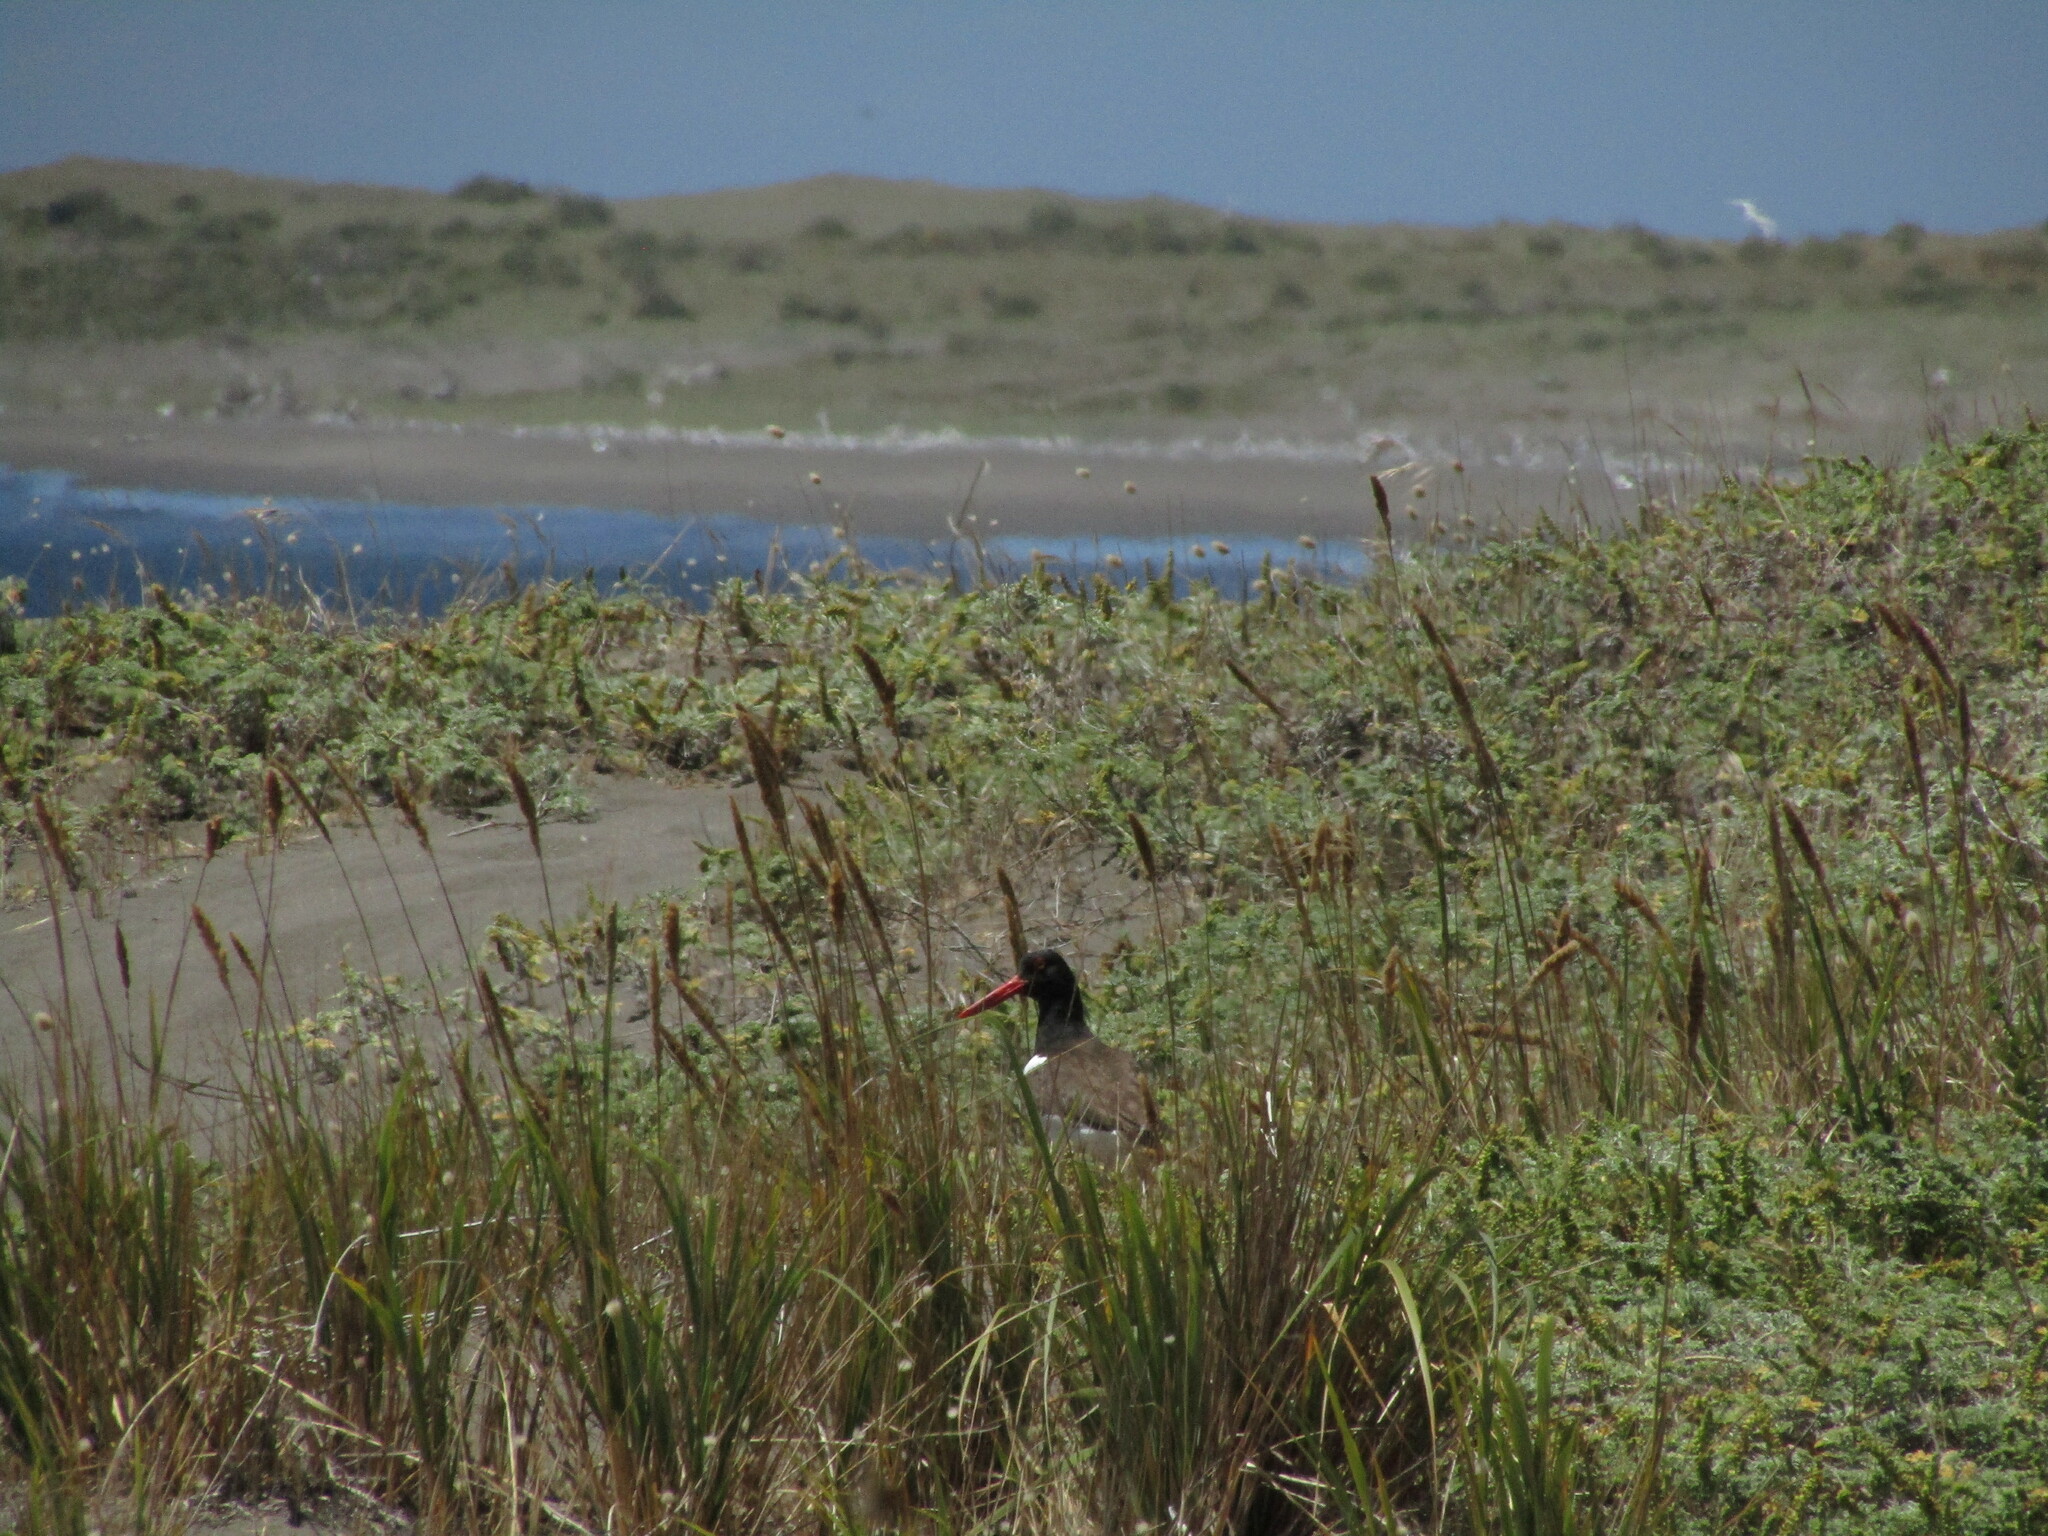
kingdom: Animalia
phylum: Chordata
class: Aves
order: Charadriiformes
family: Haematopodidae
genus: Haematopus
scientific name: Haematopus palliatus
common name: American oystercatcher
